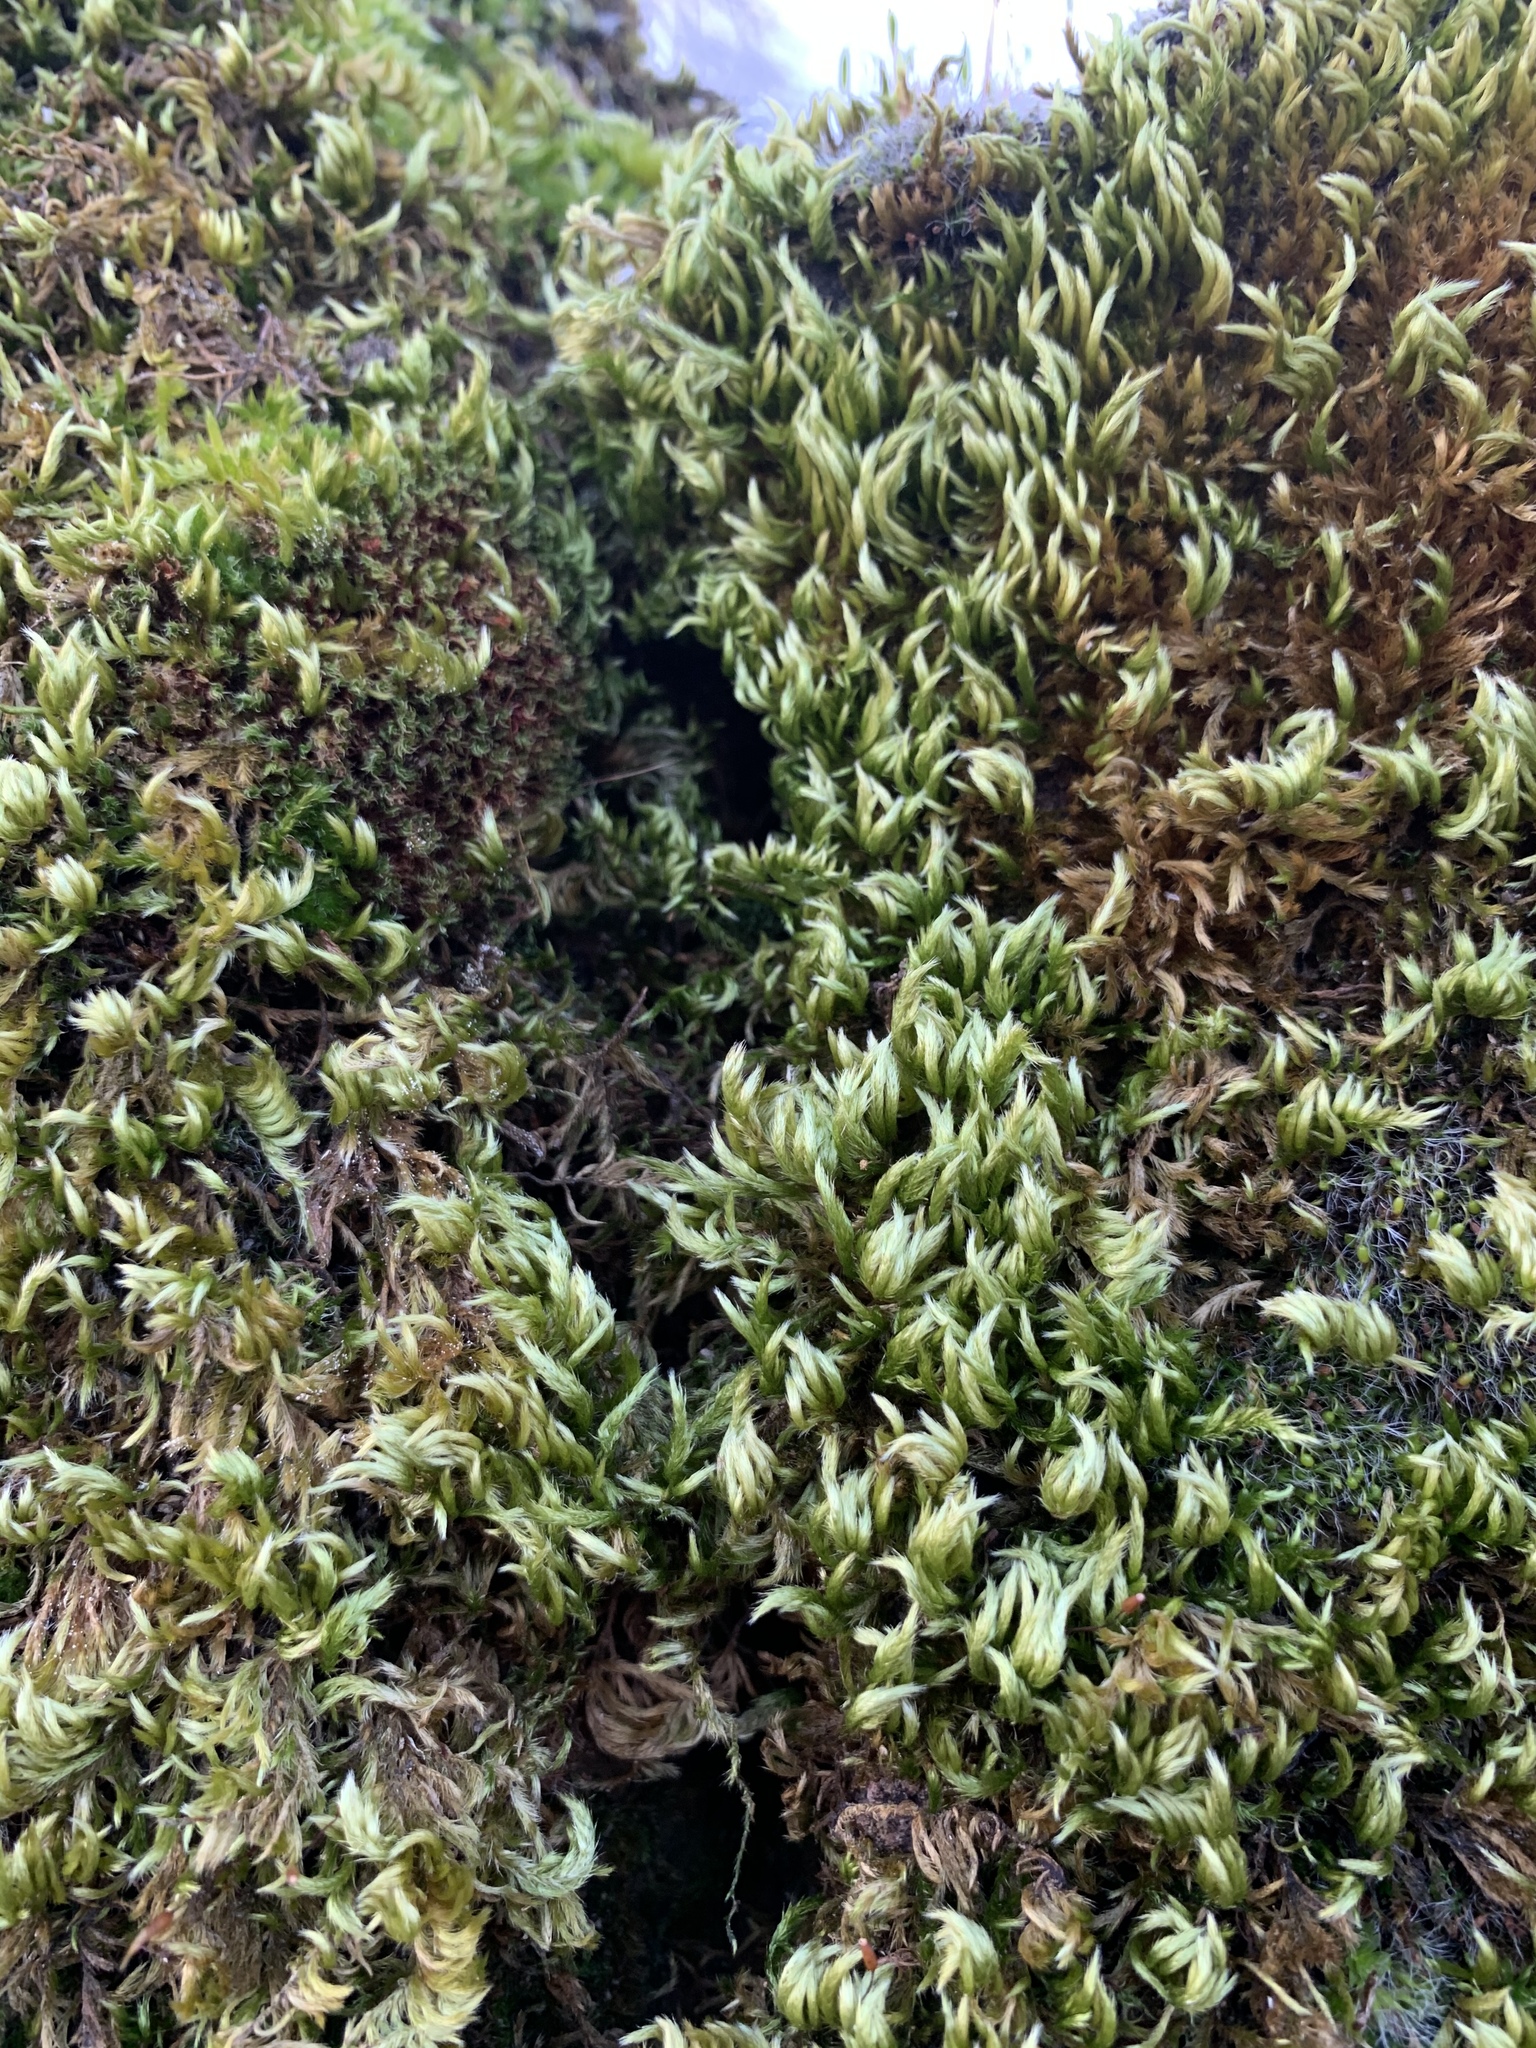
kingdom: Plantae
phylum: Bryophyta
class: Bryopsida
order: Hypnales
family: Brachytheciaceae
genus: Homalothecium
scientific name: Homalothecium sericeum
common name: Silky wall feather-moss
